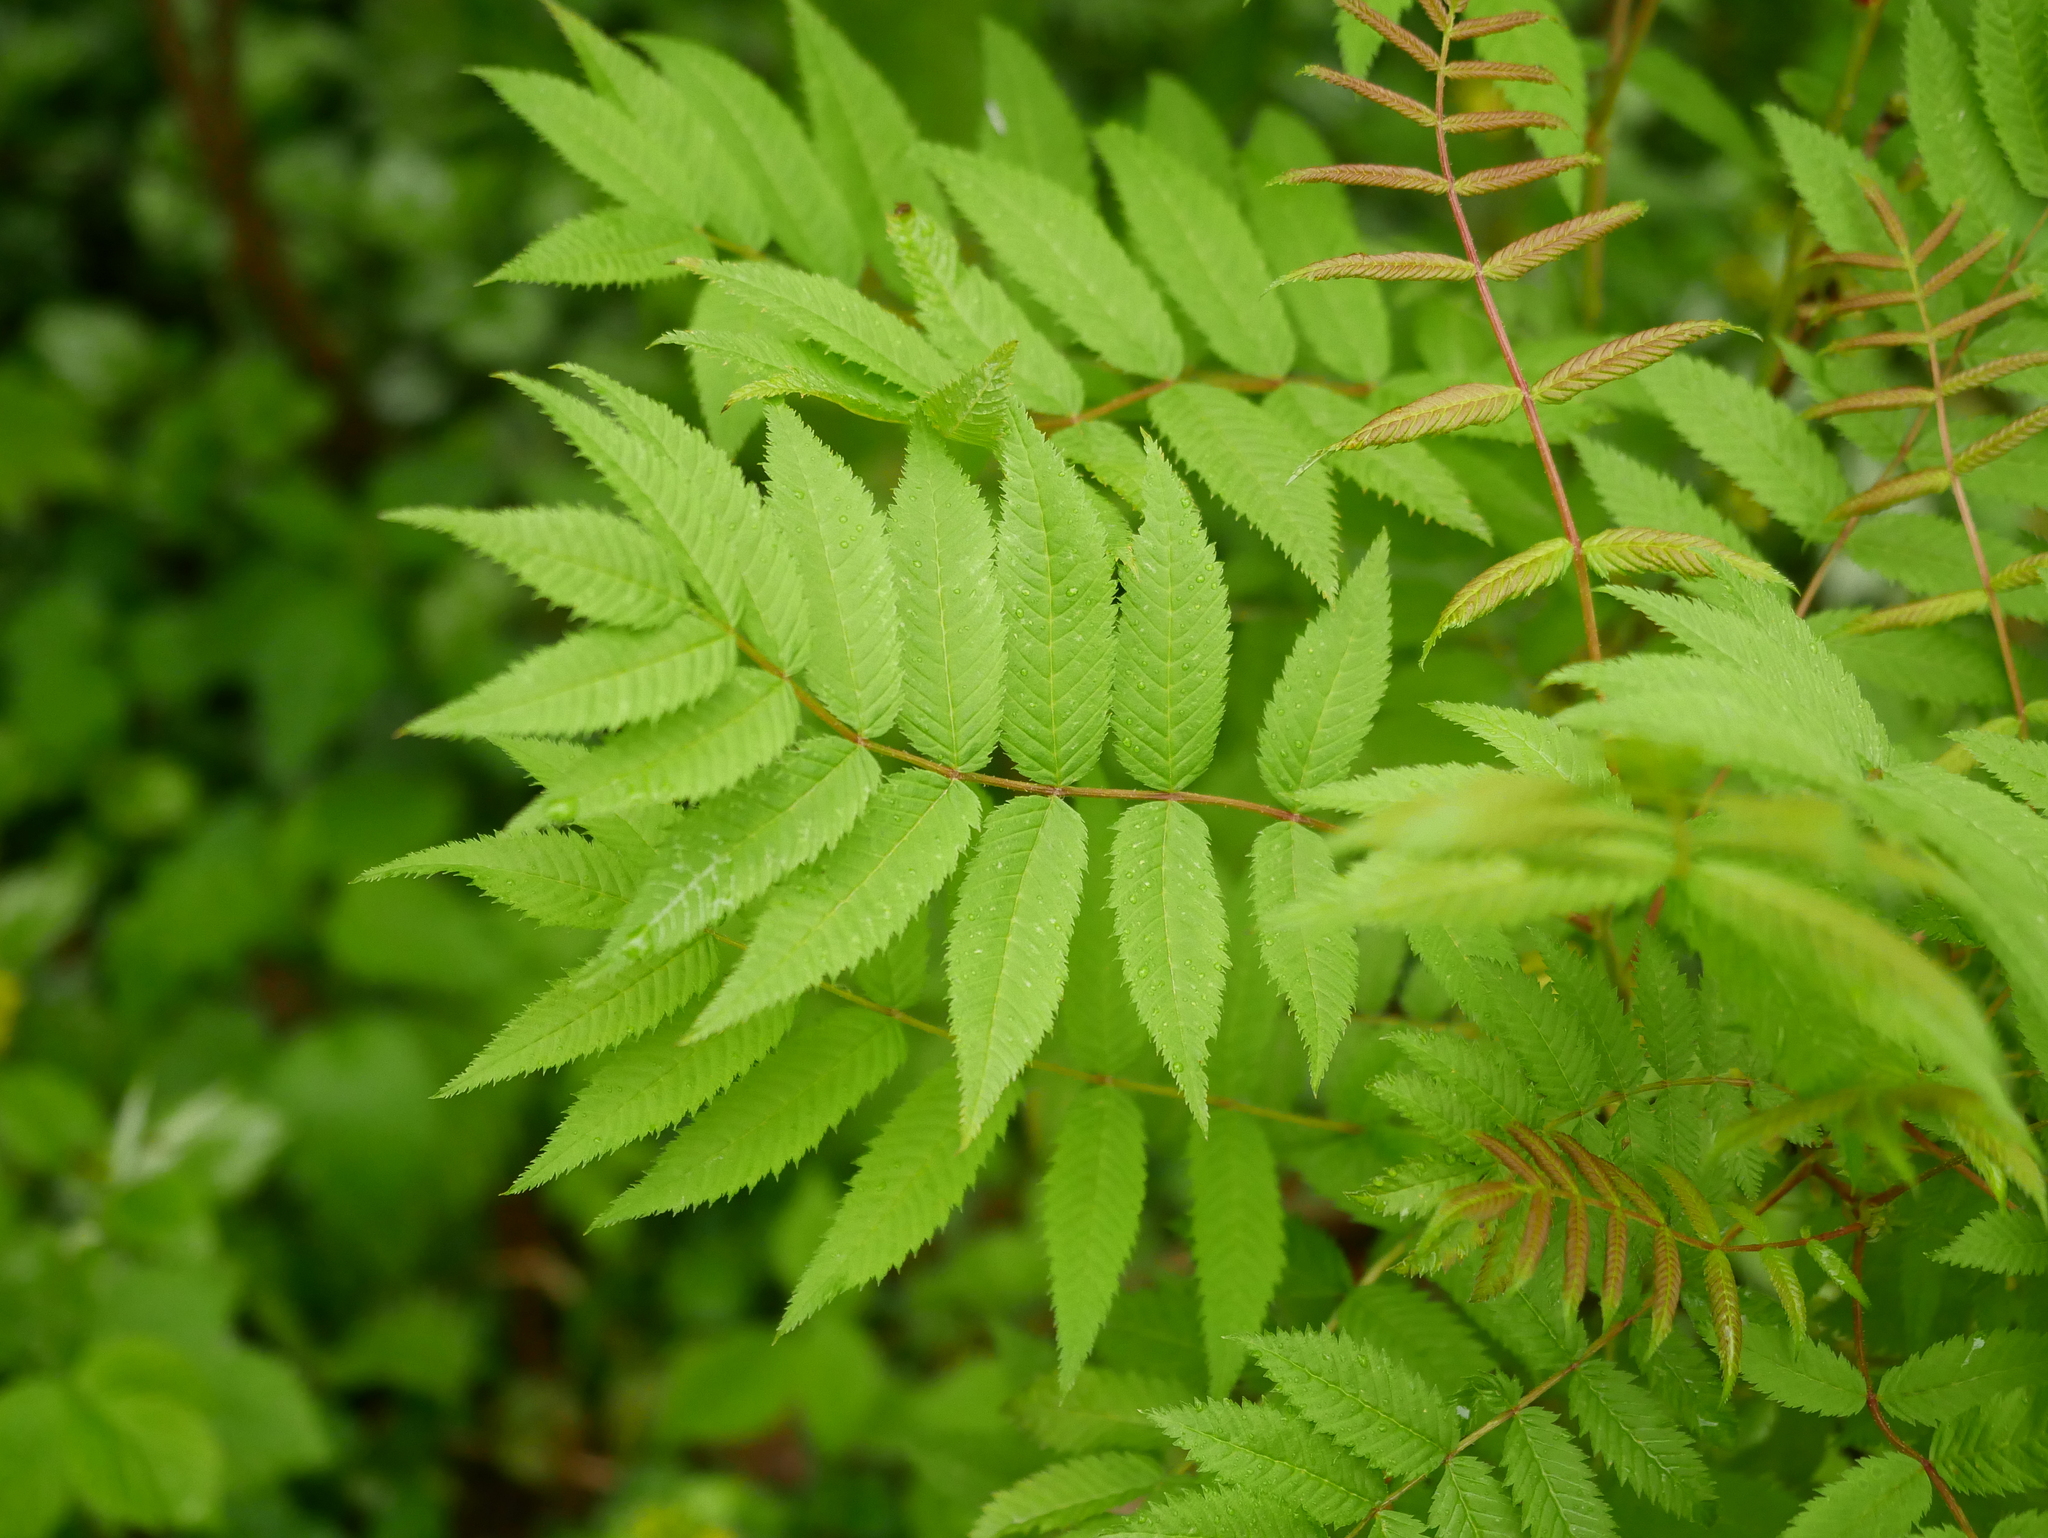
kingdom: Plantae
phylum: Tracheophyta
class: Magnoliopsida
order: Rosales
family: Rosaceae
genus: Sorbaria
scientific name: Sorbaria sorbifolia
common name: False spiraea
